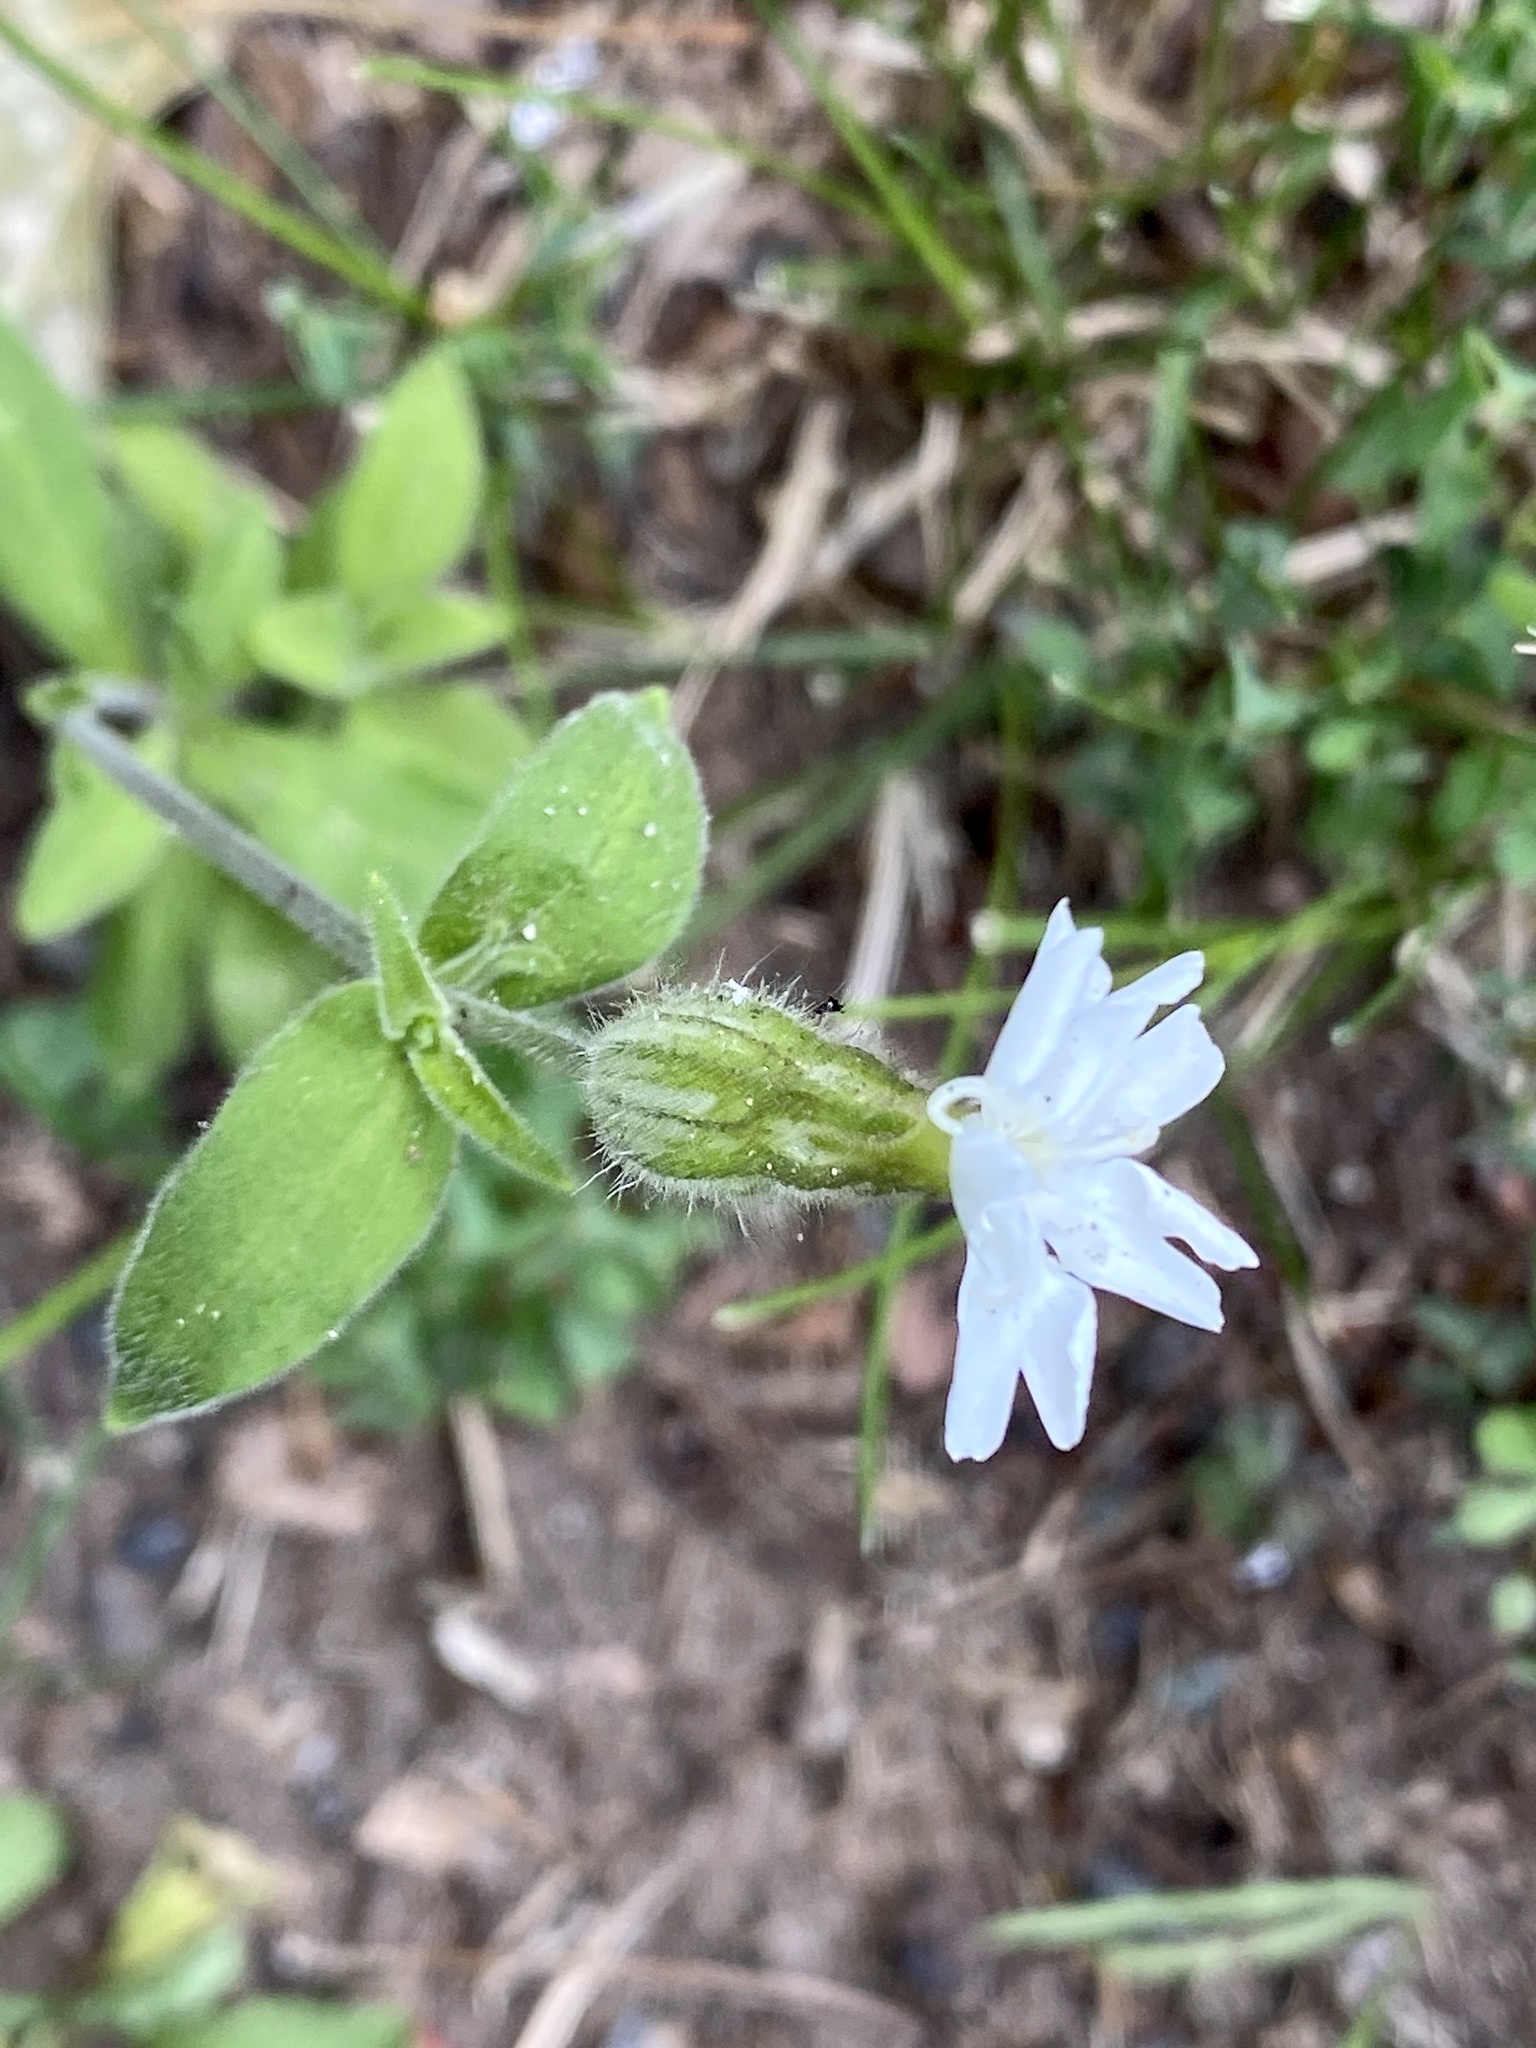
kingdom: Plantae
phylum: Tracheophyta
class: Magnoliopsida
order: Caryophyllales
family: Caryophyllaceae
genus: Silene
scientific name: Silene latifolia
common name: White campion
